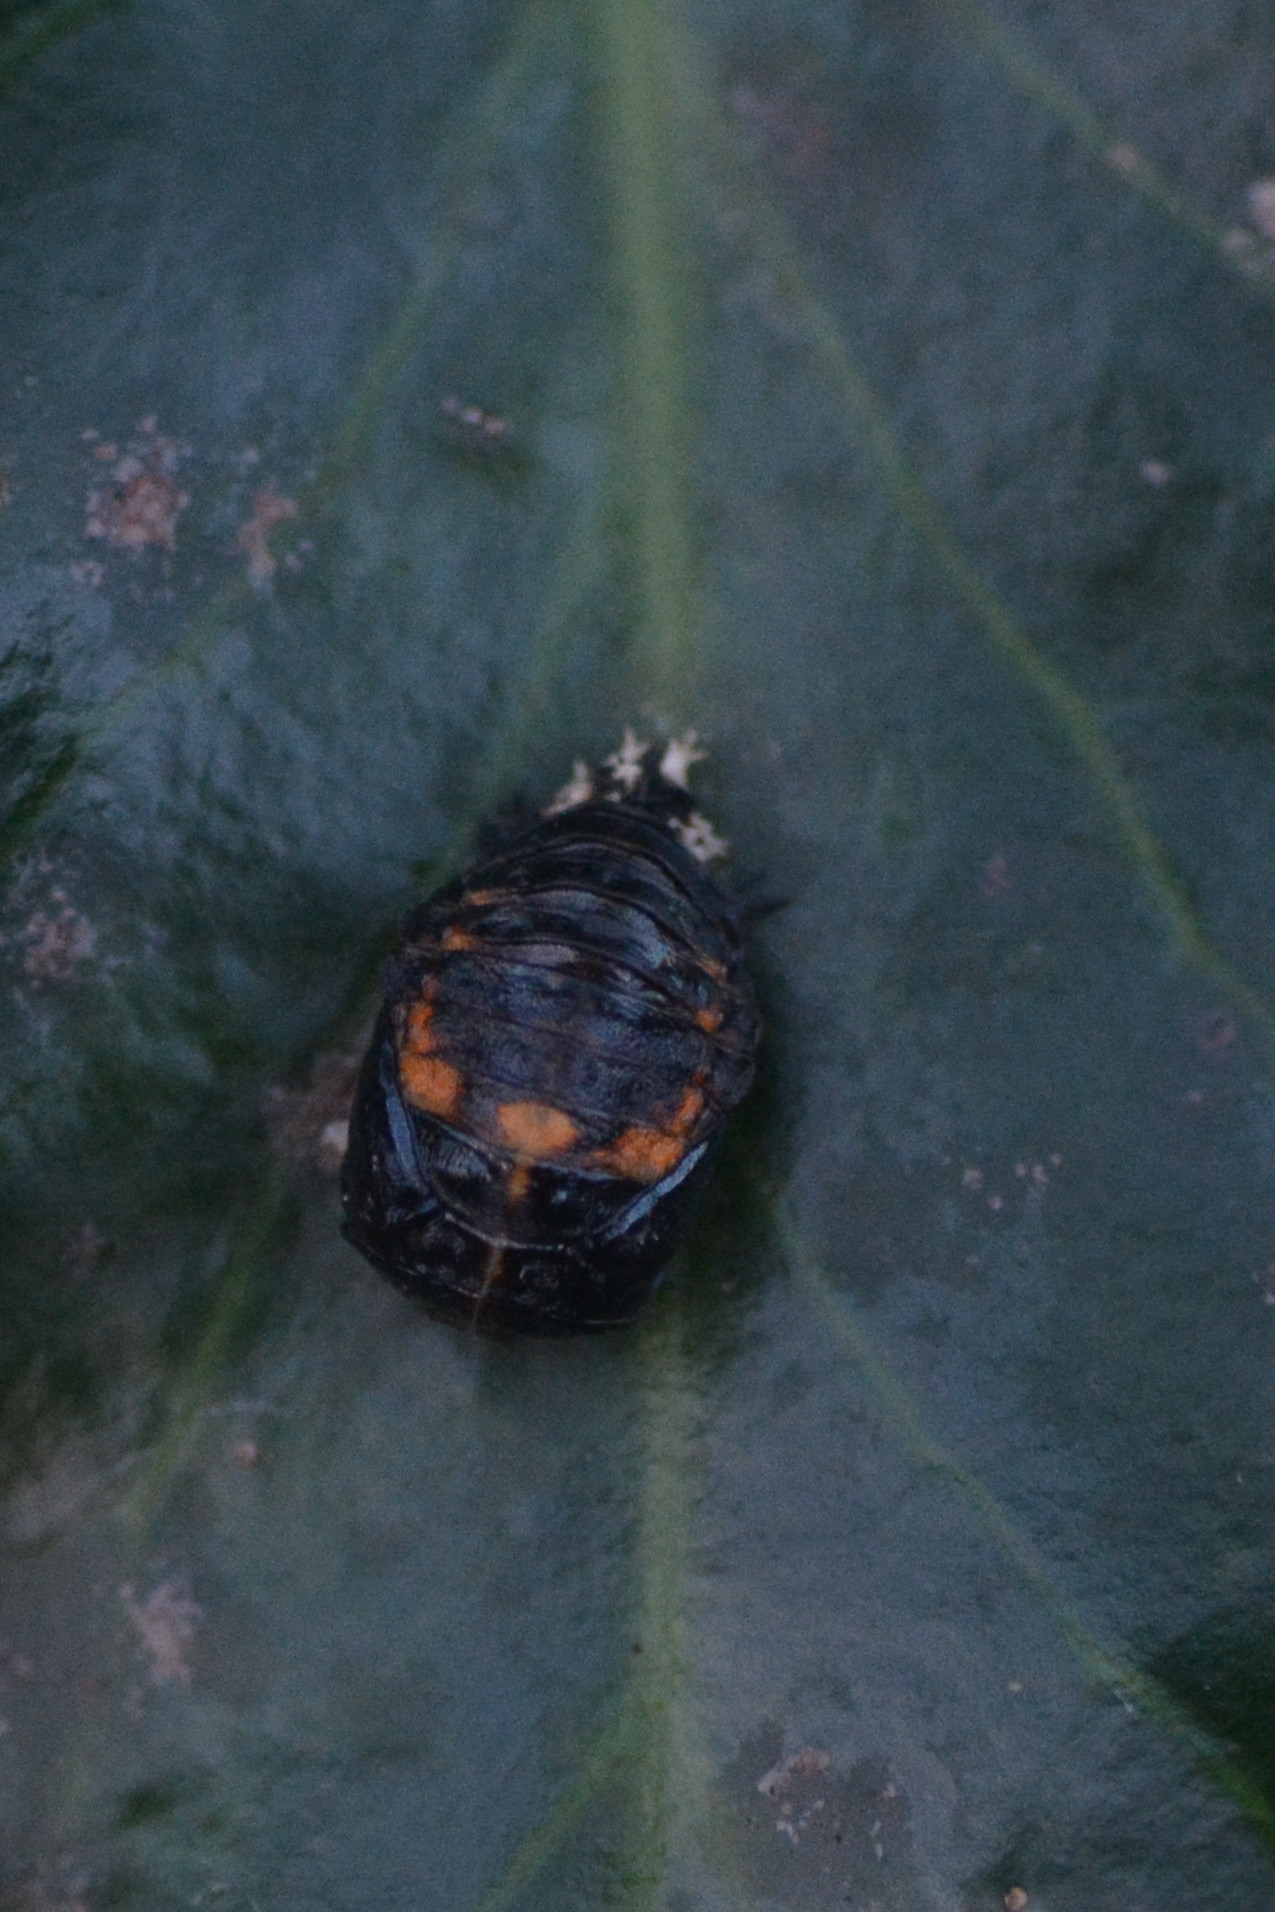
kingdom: Animalia
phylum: Arthropoda
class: Insecta
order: Coleoptera
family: Coccinellidae
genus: Harmonia
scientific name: Harmonia axyridis
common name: Harlequin ladybird
